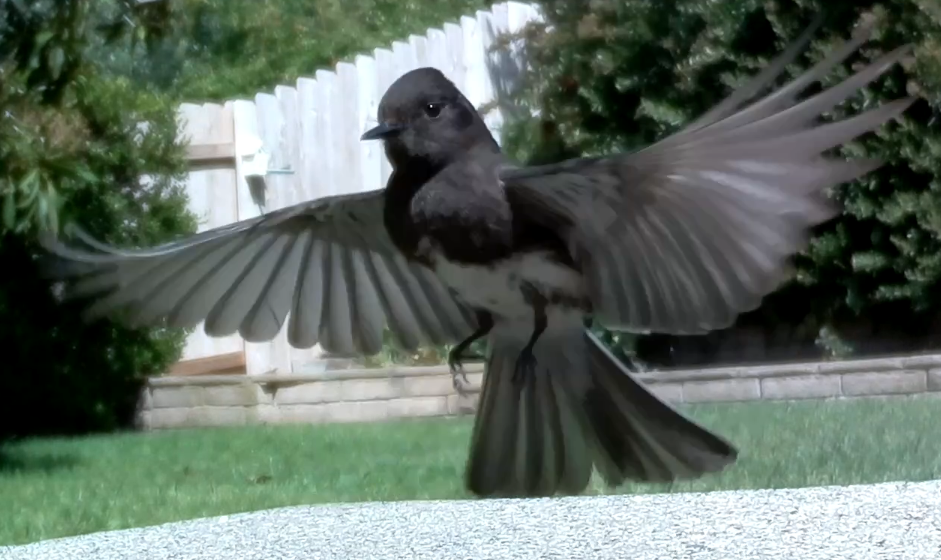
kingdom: Animalia
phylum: Chordata
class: Aves
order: Passeriformes
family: Tyrannidae
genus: Sayornis
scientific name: Sayornis nigricans
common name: Black phoebe
